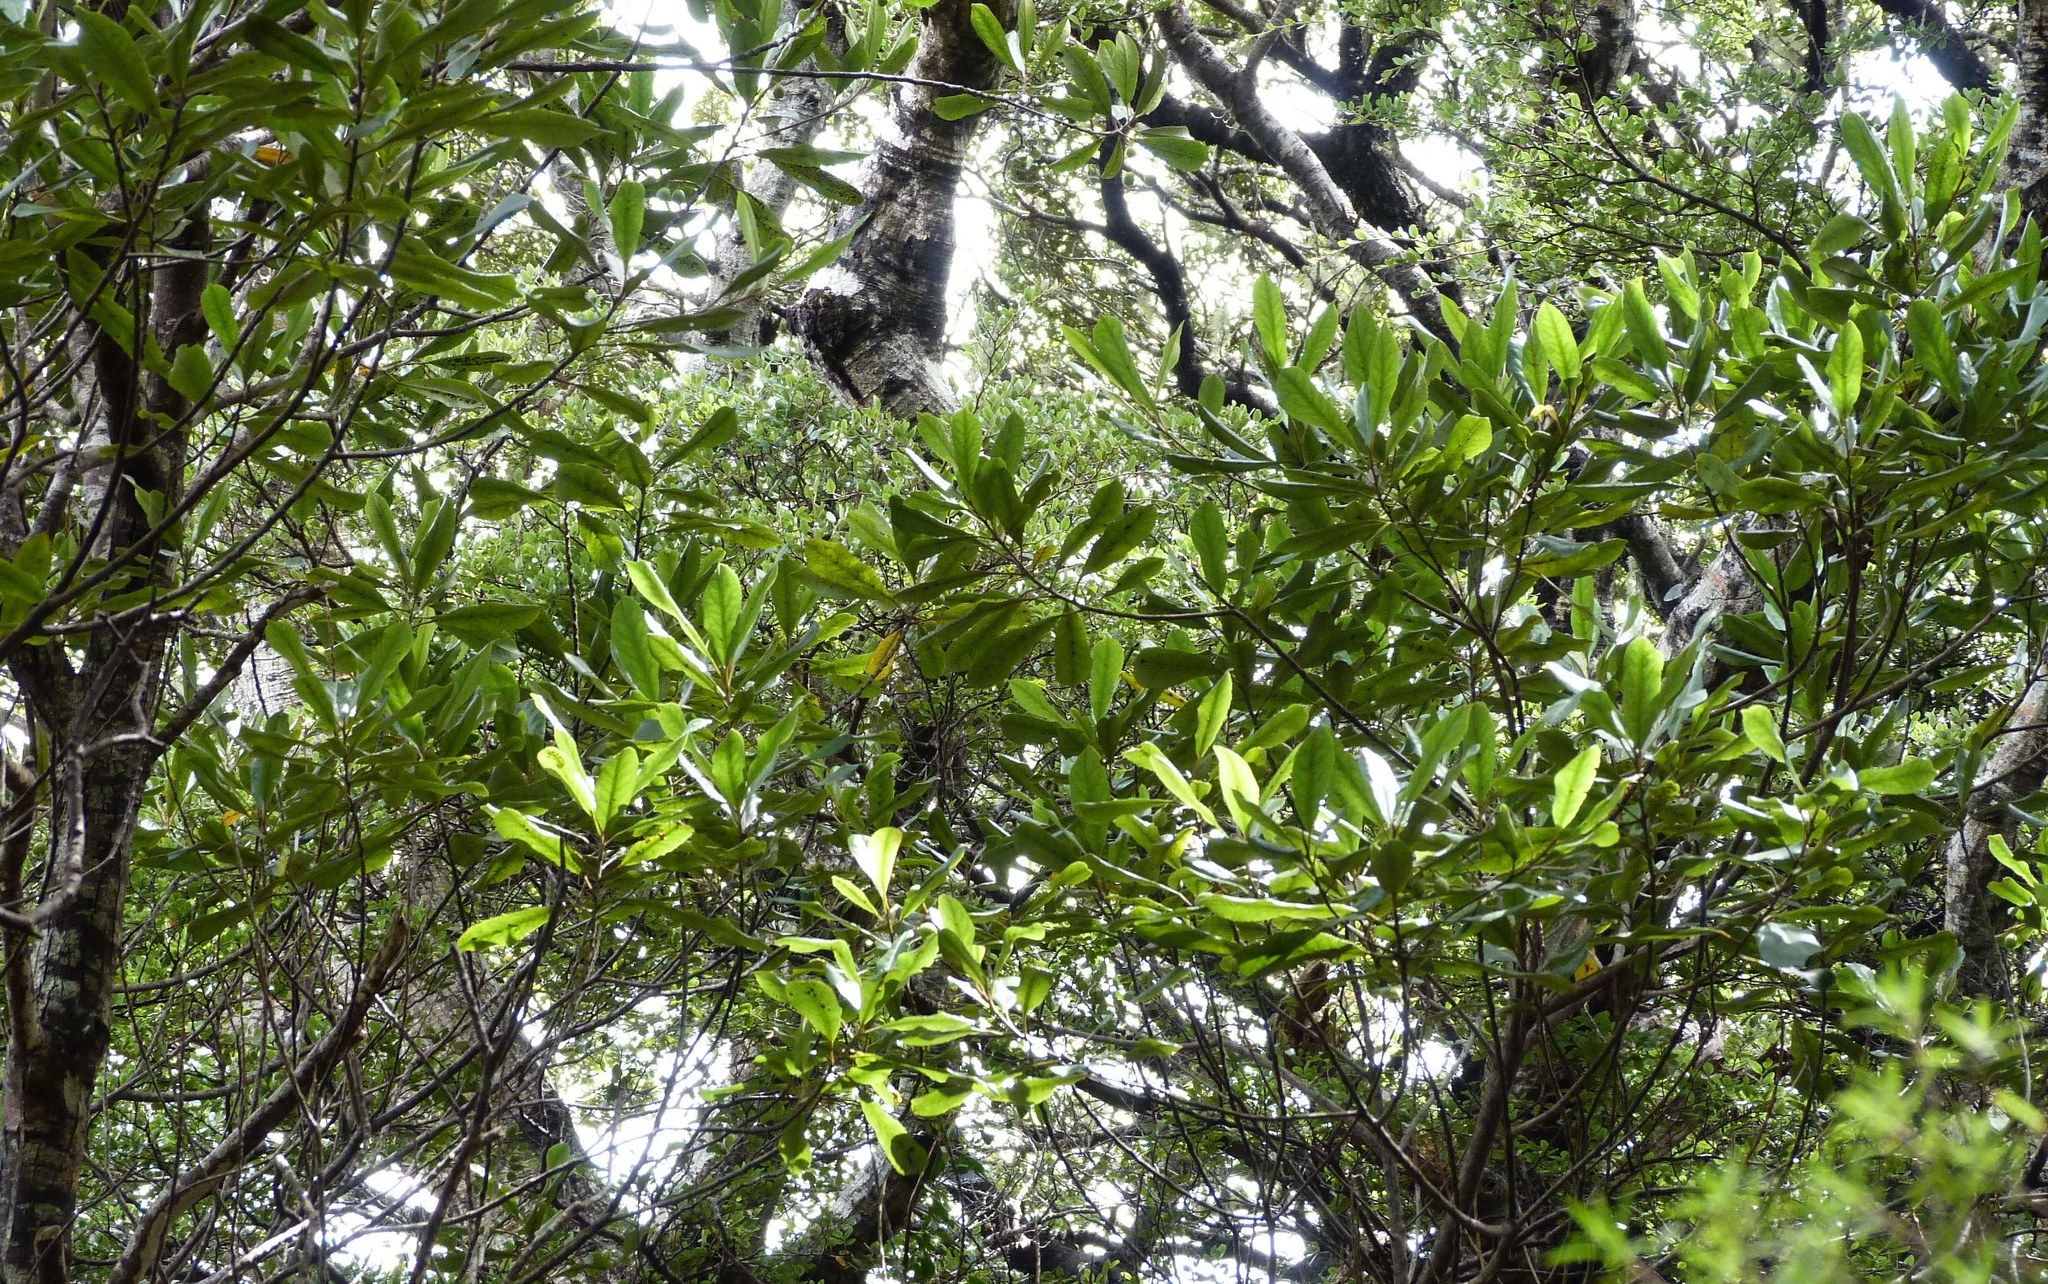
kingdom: Plantae
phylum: Tracheophyta
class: Magnoliopsida
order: Oxalidales
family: Elaeocarpaceae
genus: Elaeocarpus
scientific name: Elaeocarpus dentatus
